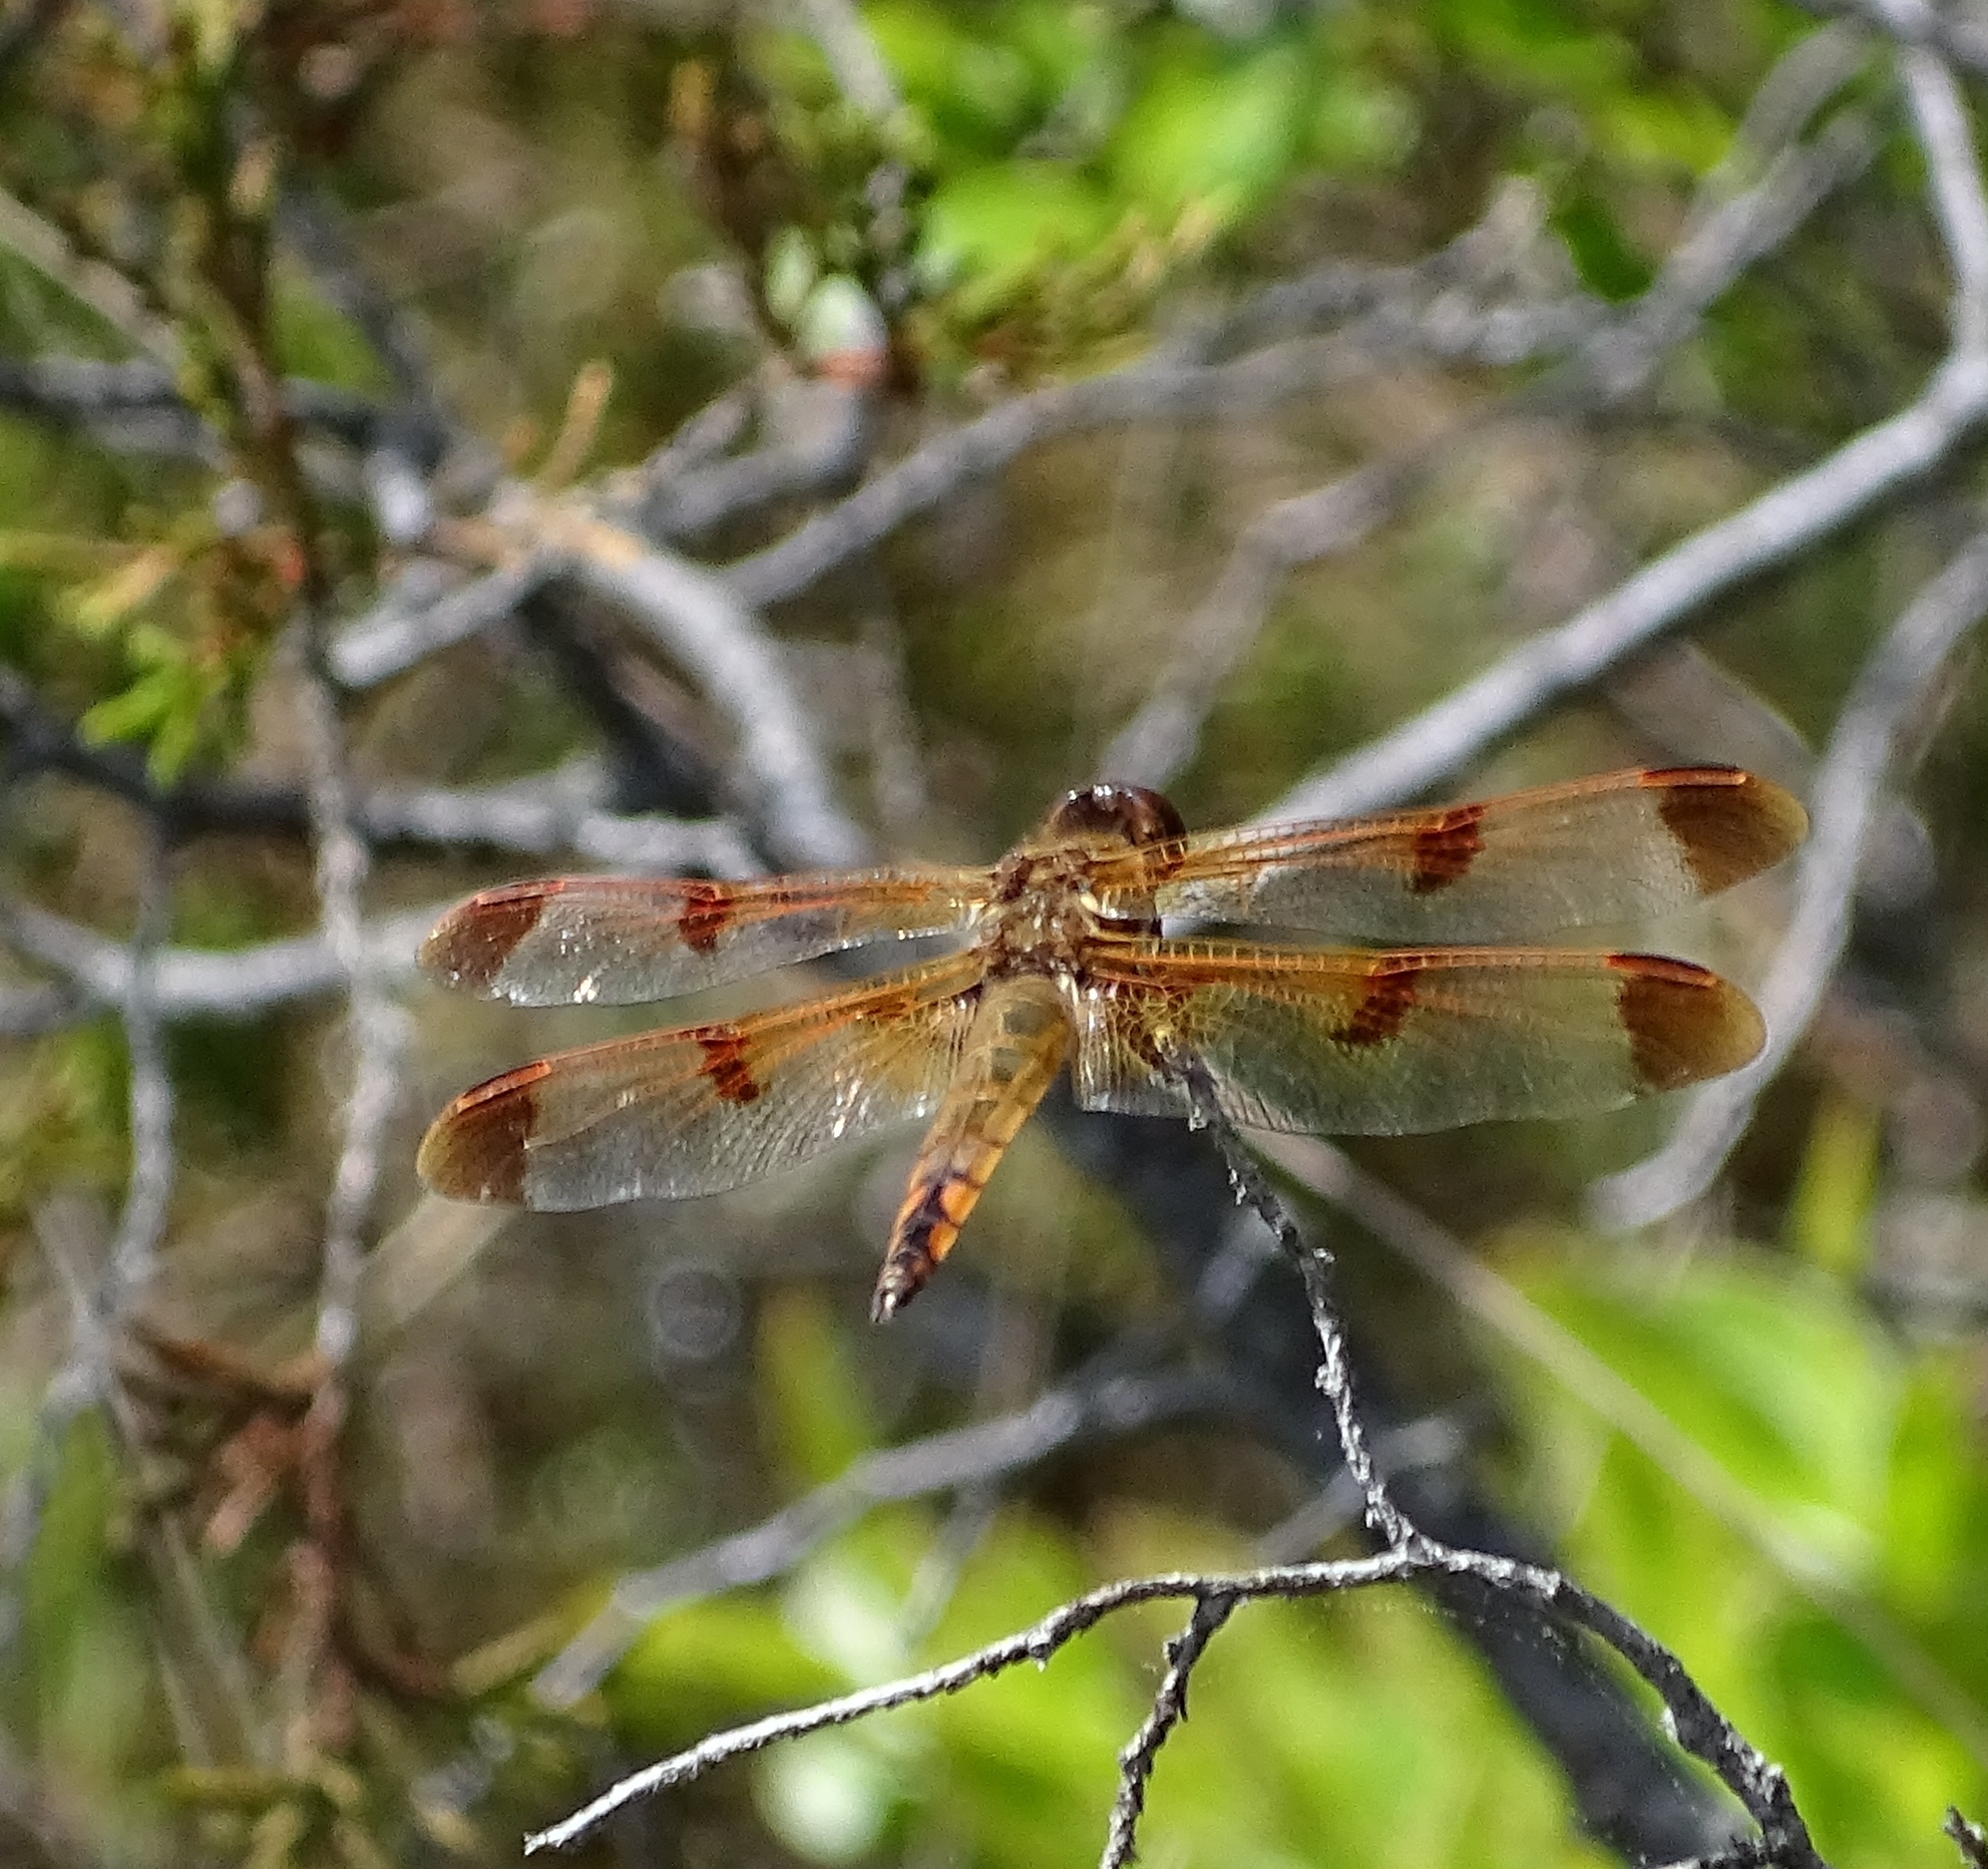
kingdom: Animalia
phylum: Arthropoda
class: Insecta
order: Odonata
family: Libellulidae
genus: Libellula
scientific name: Libellula semifasciata
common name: Painted skimmer
